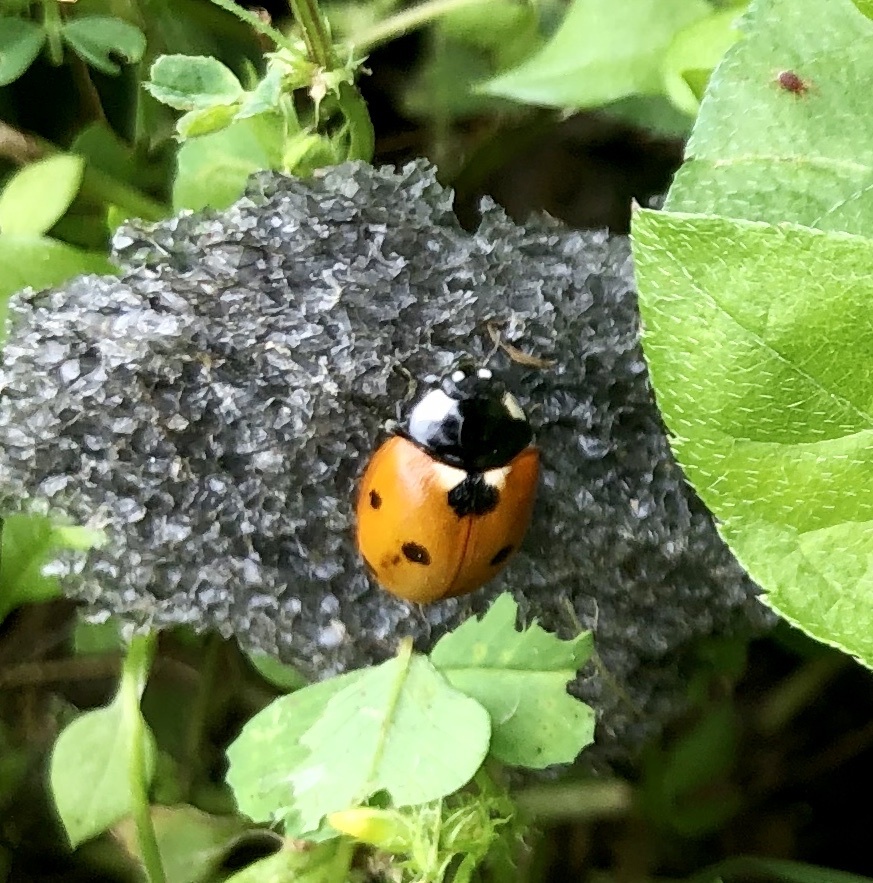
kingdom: Animalia
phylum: Arthropoda
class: Insecta
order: Coleoptera
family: Coccinellidae
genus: Coccinella
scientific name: Coccinella septempunctata
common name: Sevenspotted lady beetle
